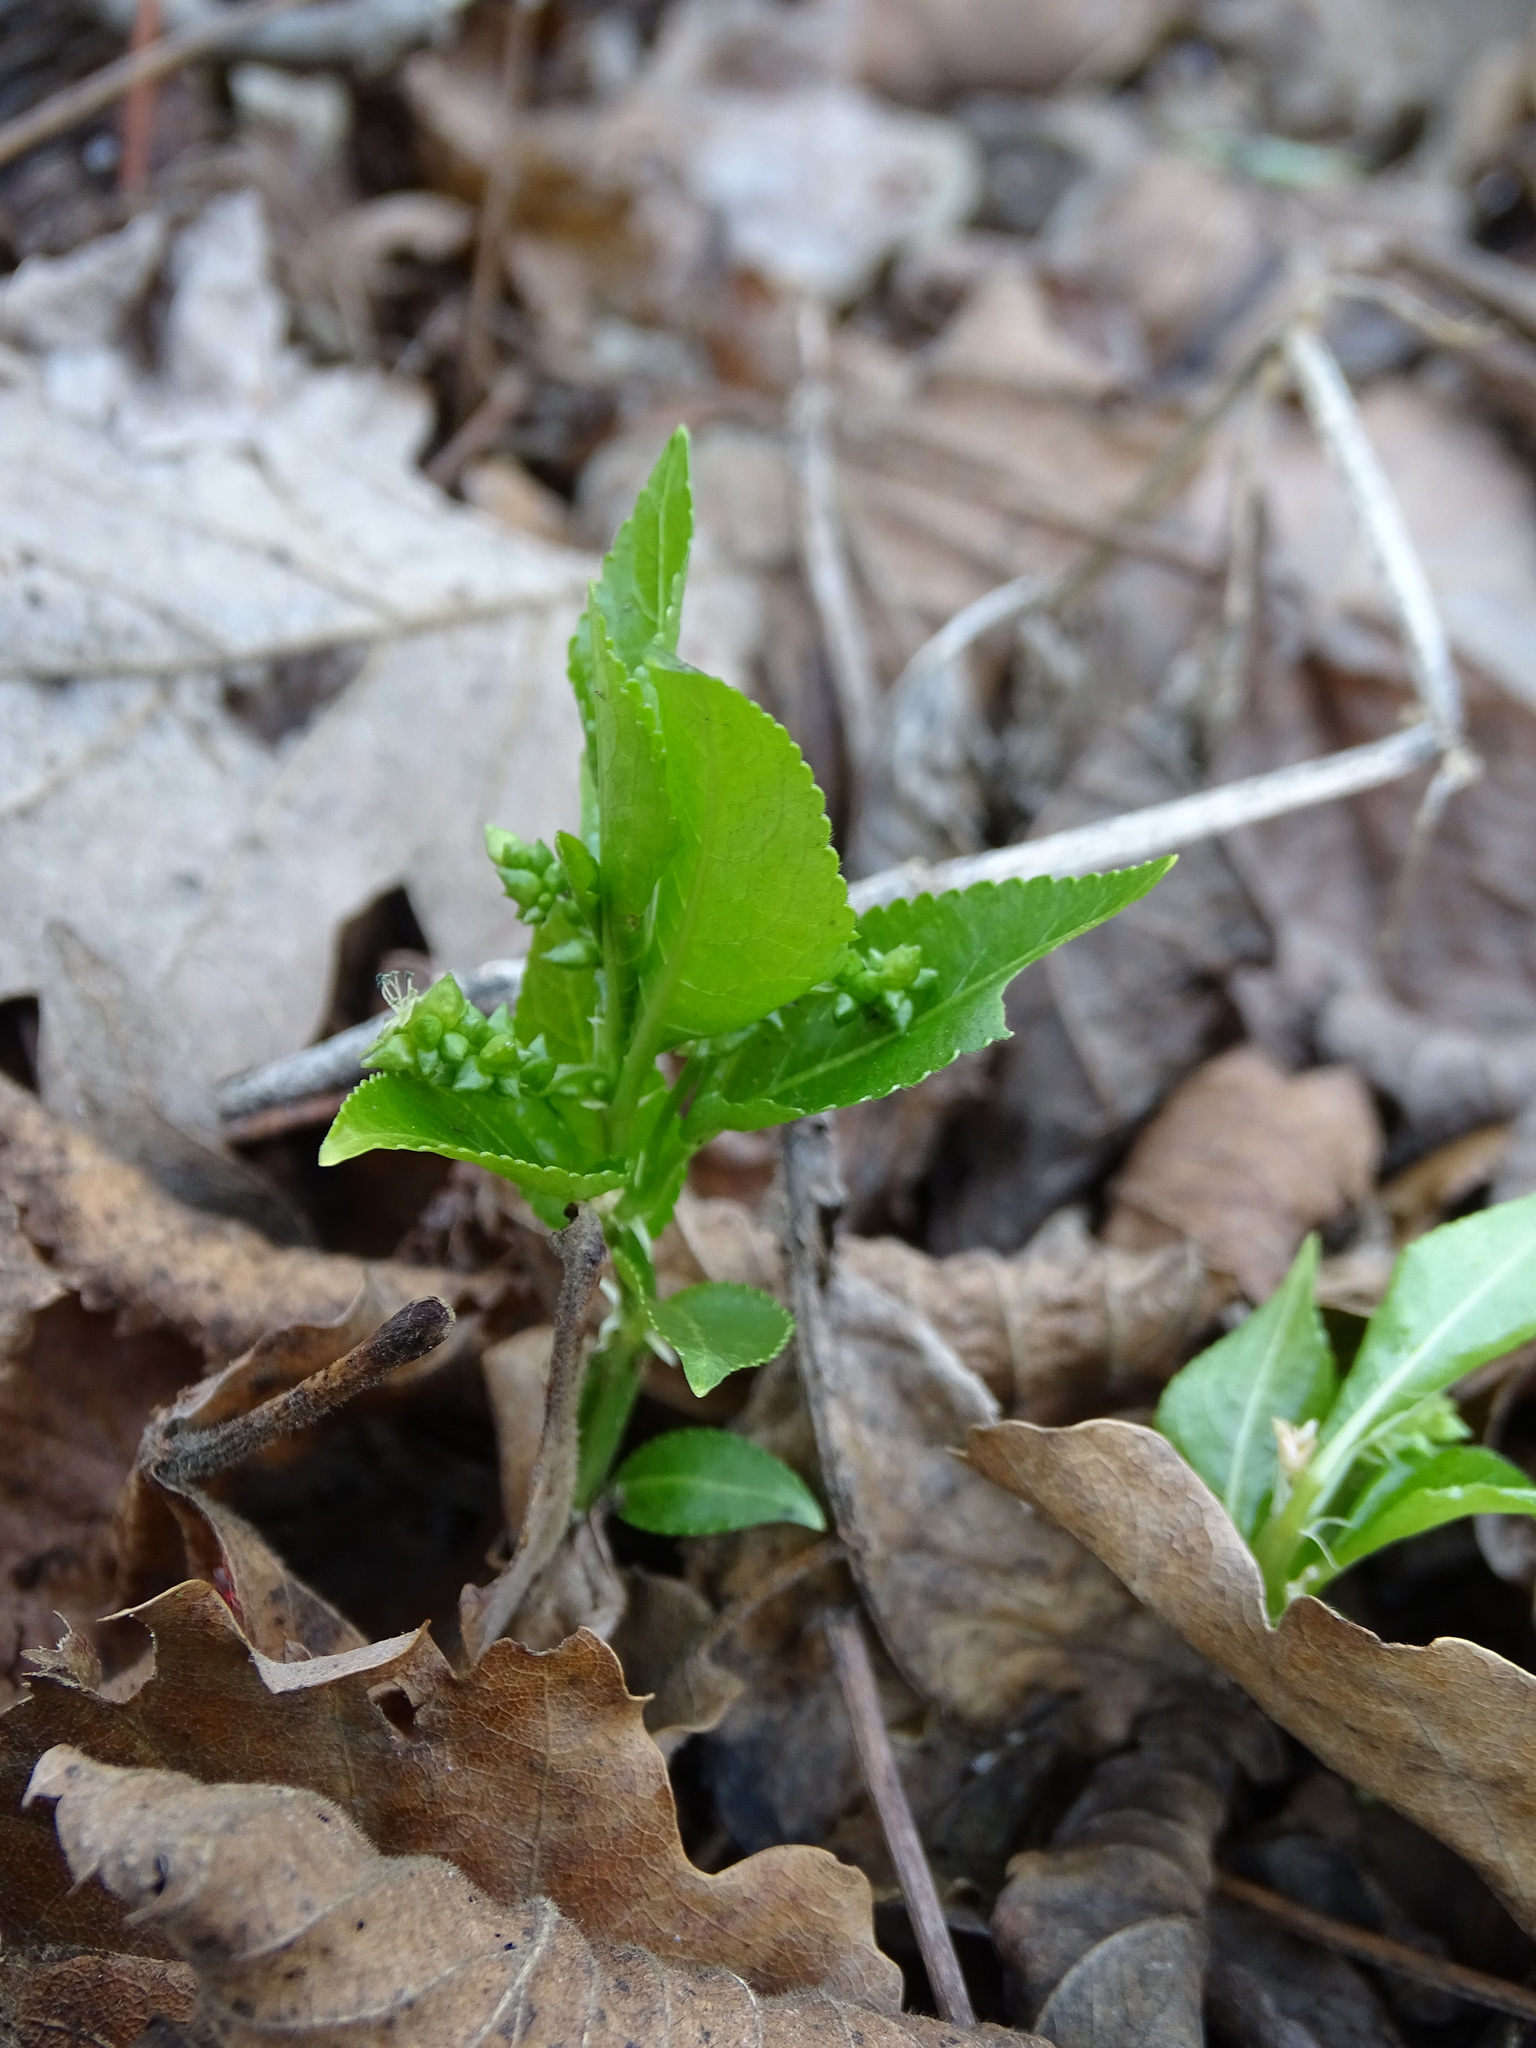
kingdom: Plantae
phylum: Tracheophyta
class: Magnoliopsida
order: Malpighiales
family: Euphorbiaceae
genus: Mercurialis
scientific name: Mercurialis perennis
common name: Dog mercury
